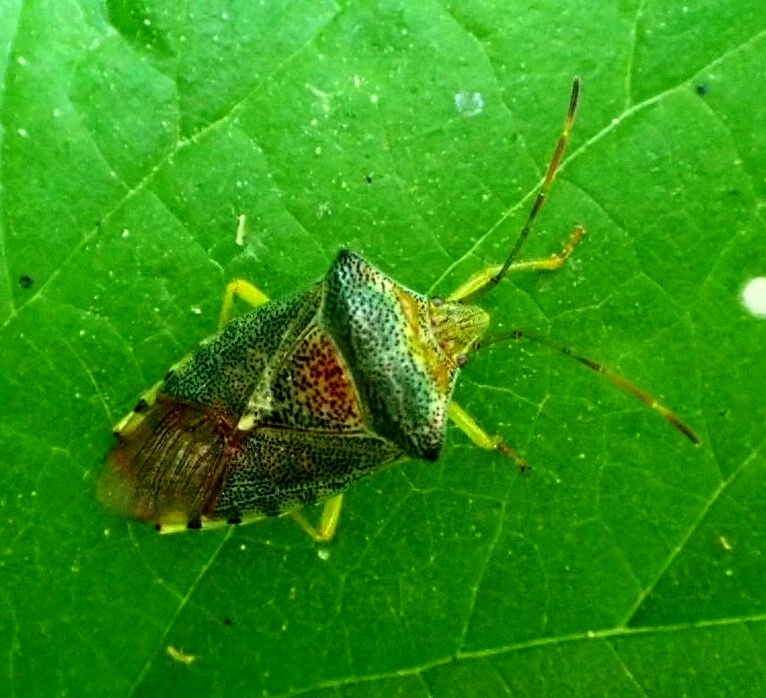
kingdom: Animalia
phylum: Arthropoda
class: Insecta
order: Hemiptera
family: Acanthosomatidae
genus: Acanthosoma
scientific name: Acanthosoma denticaudum
